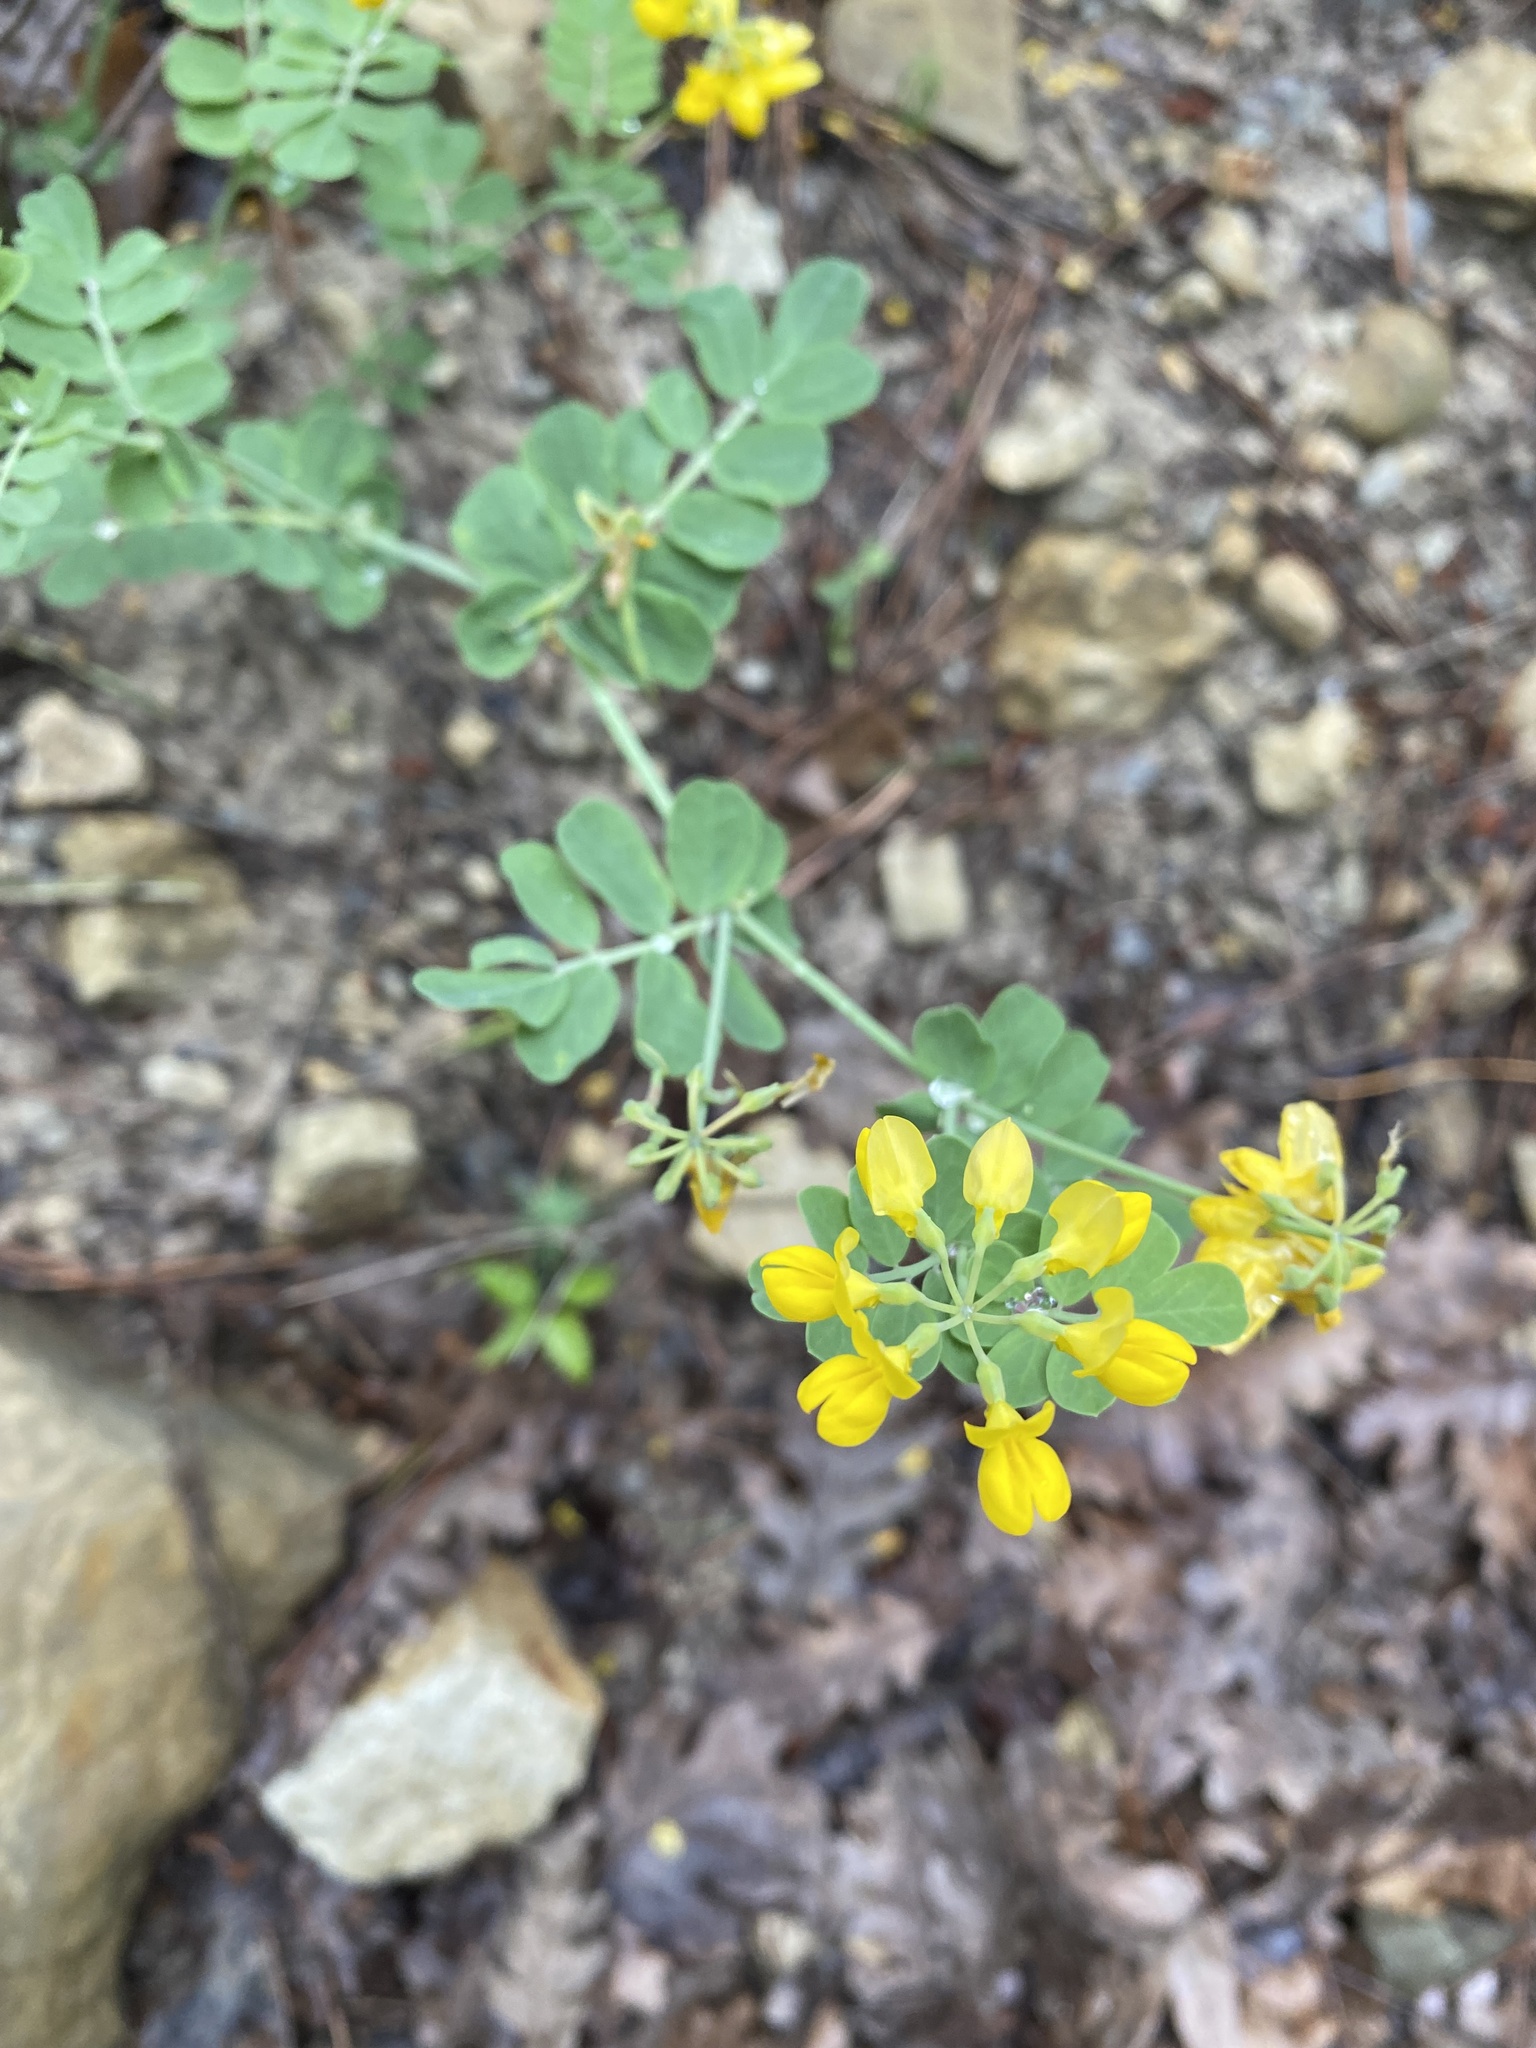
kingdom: Plantae
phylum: Tracheophyta
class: Magnoliopsida
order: Fabales
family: Fabaceae
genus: Coronilla
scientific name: Coronilla coronata
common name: Scorpion-vetch
